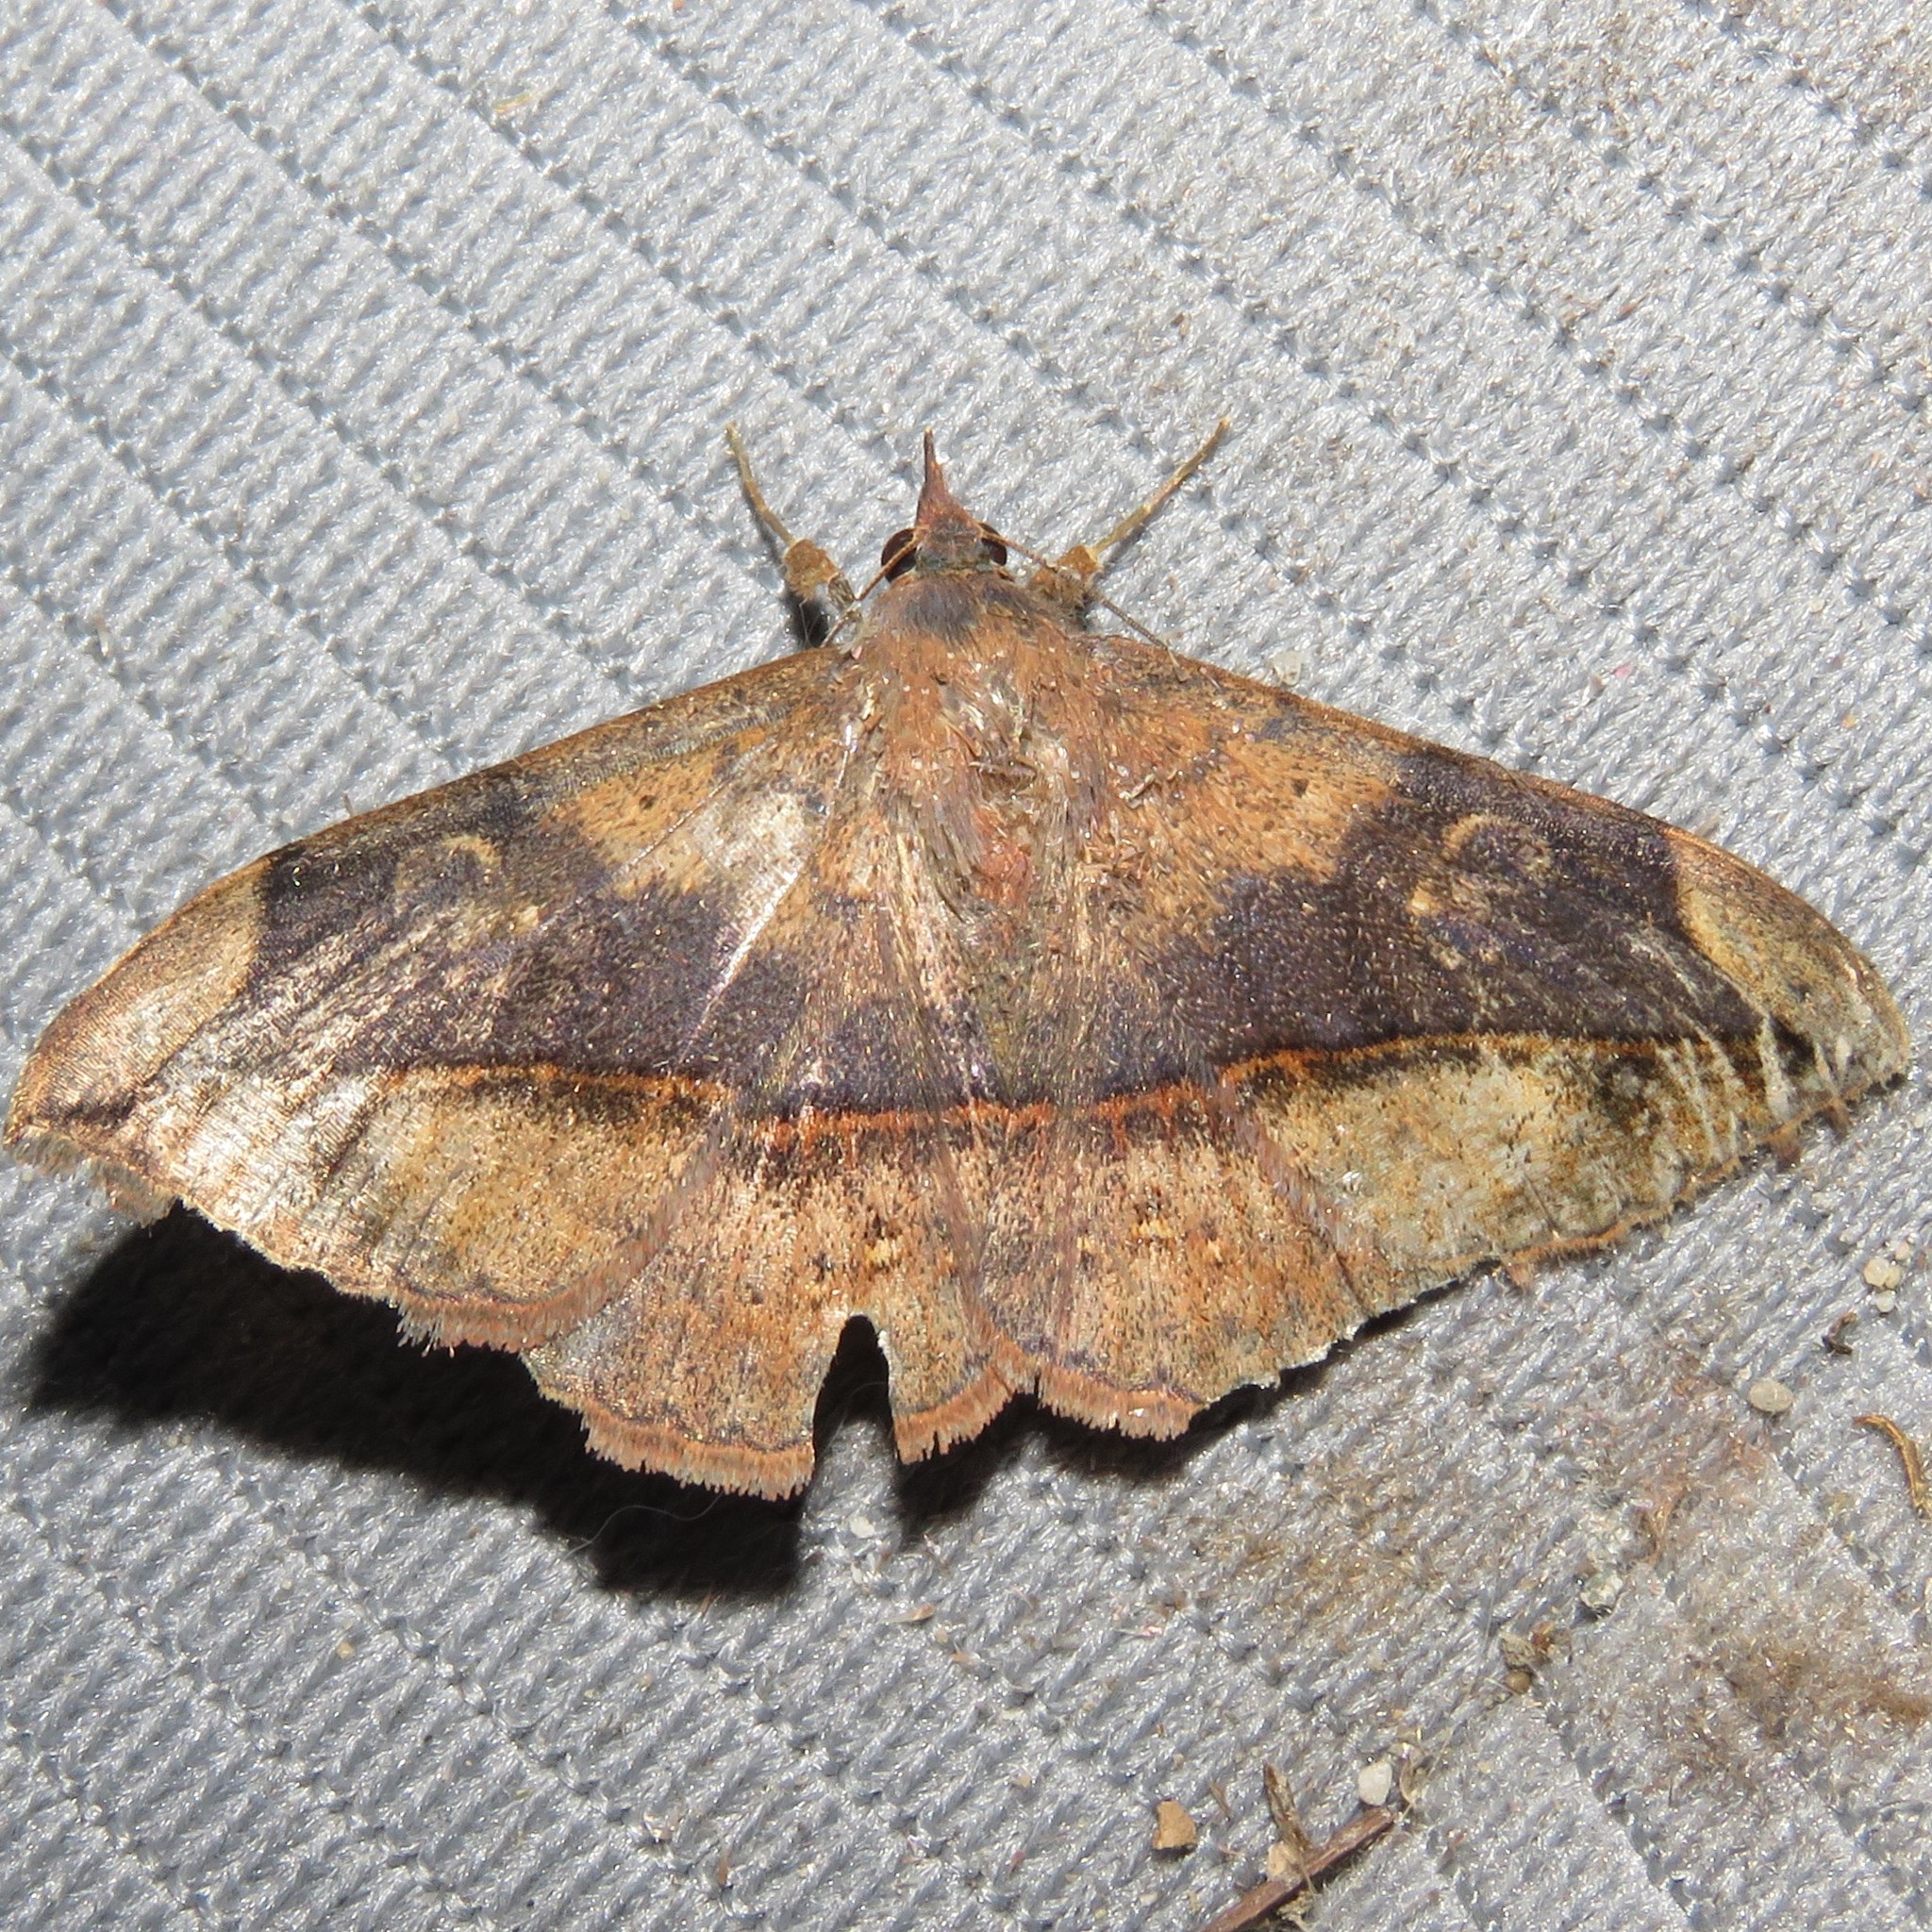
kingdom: Animalia
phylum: Arthropoda
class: Insecta
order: Lepidoptera
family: Erebidae
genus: Anticarsia
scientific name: Anticarsia gemmatalis
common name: Cutworm moth
